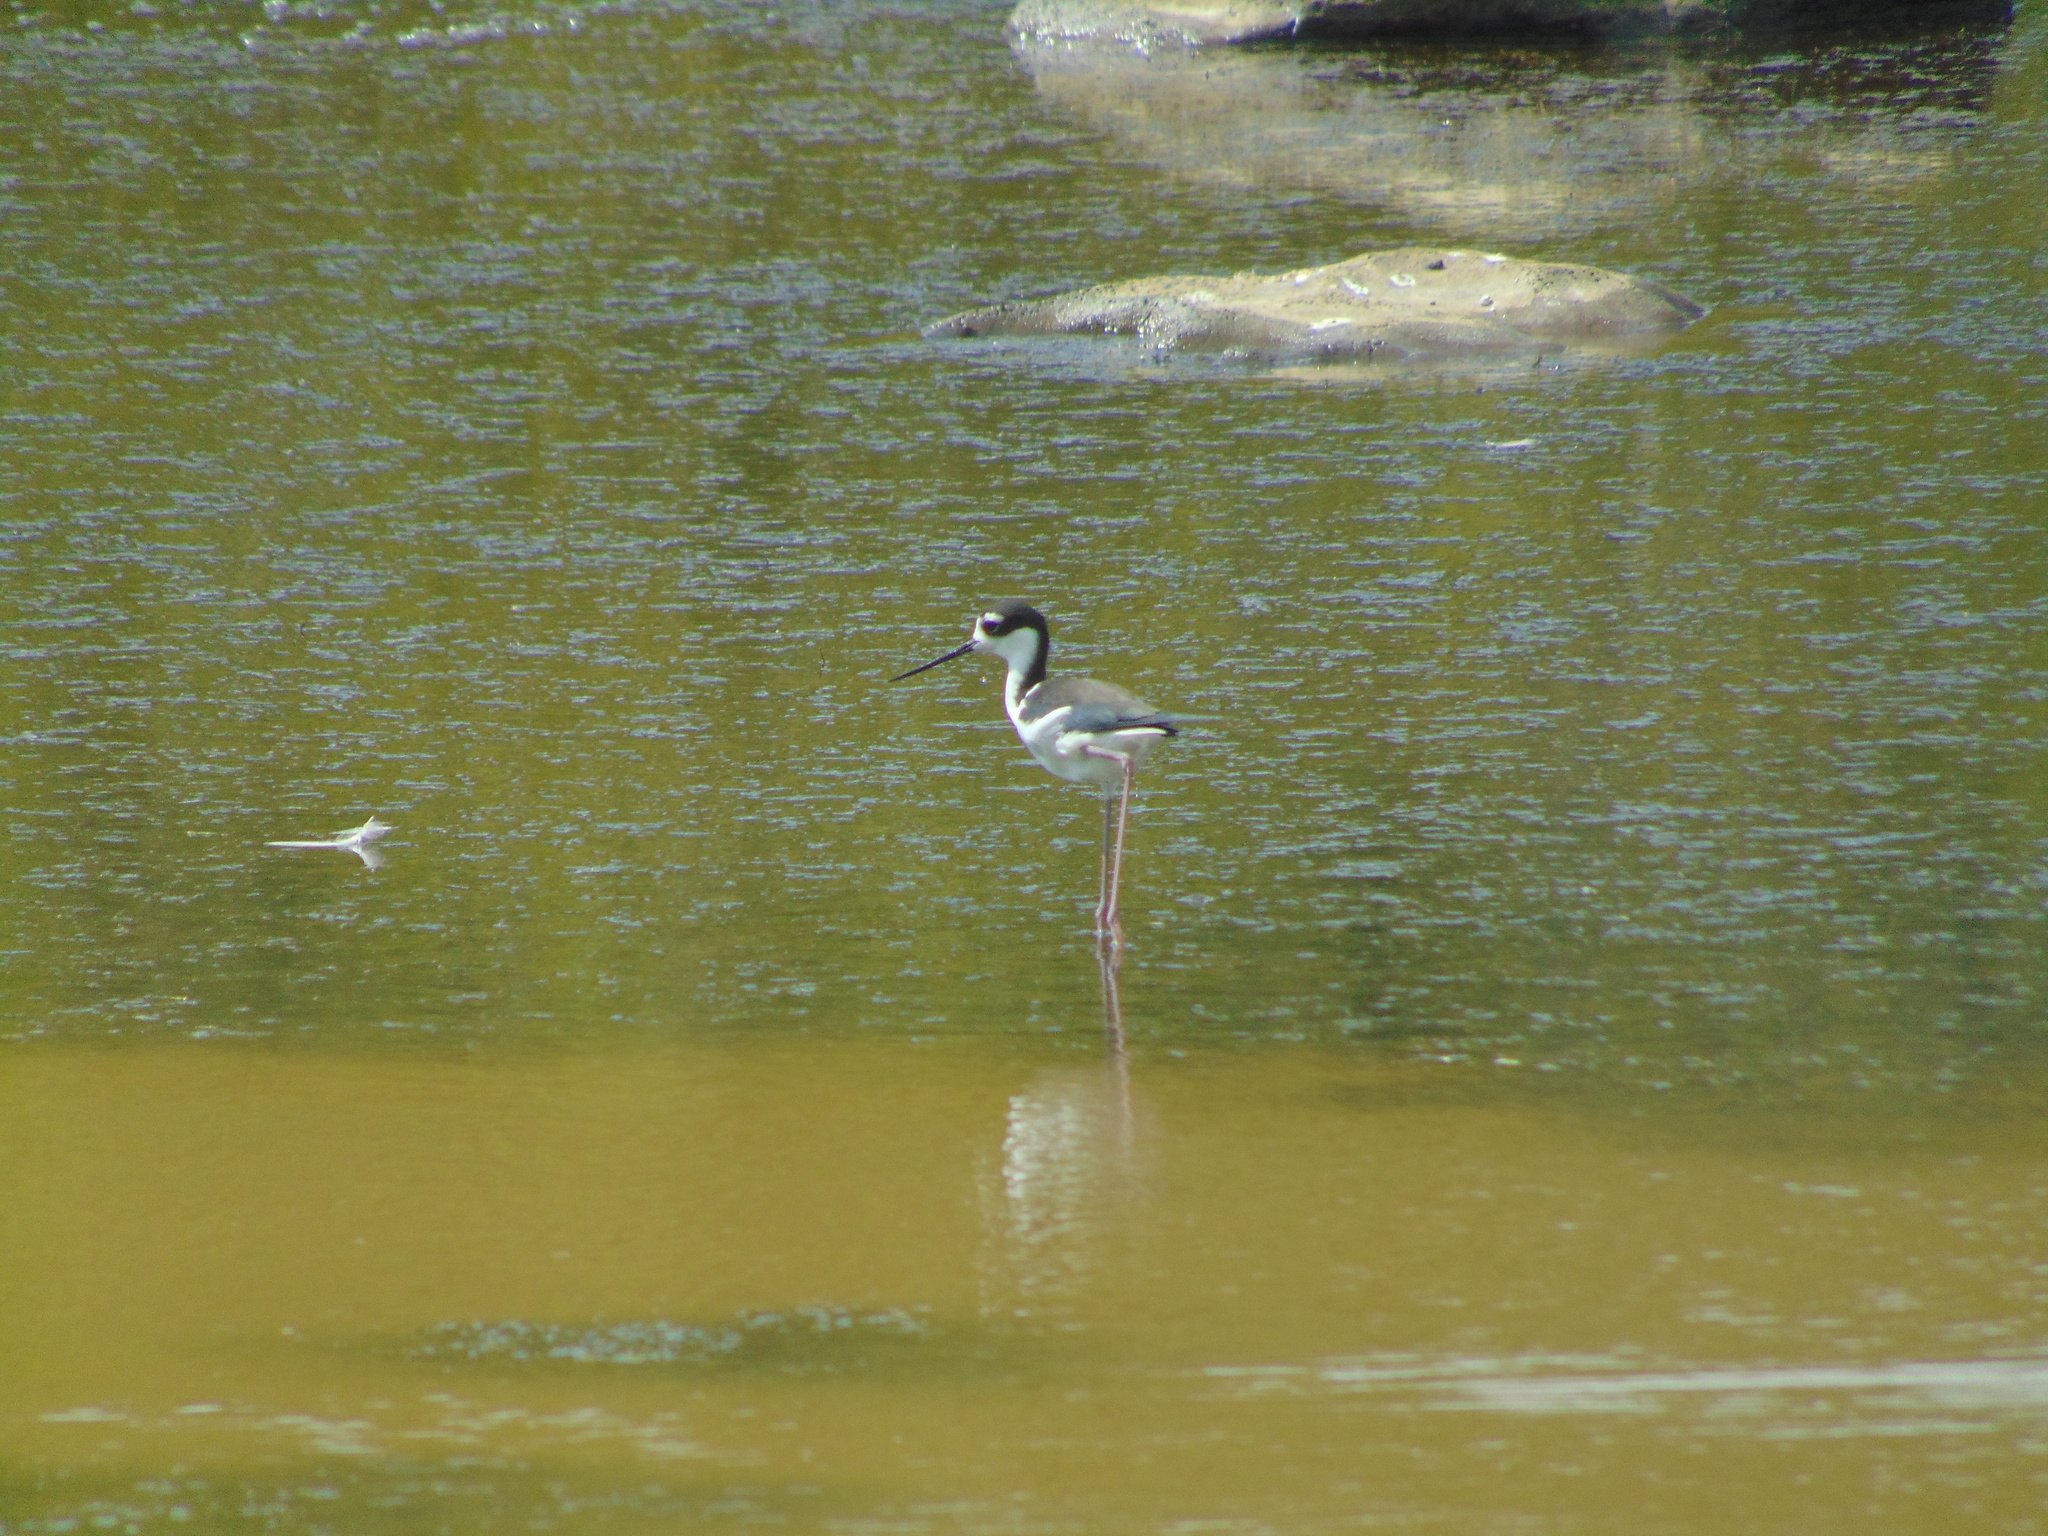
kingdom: Animalia
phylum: Chordata
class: Aves
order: Charadriiformes
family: Recurvirostridae
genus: Himantopus
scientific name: Himantopus mexicanus
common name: Black-necked stilt
